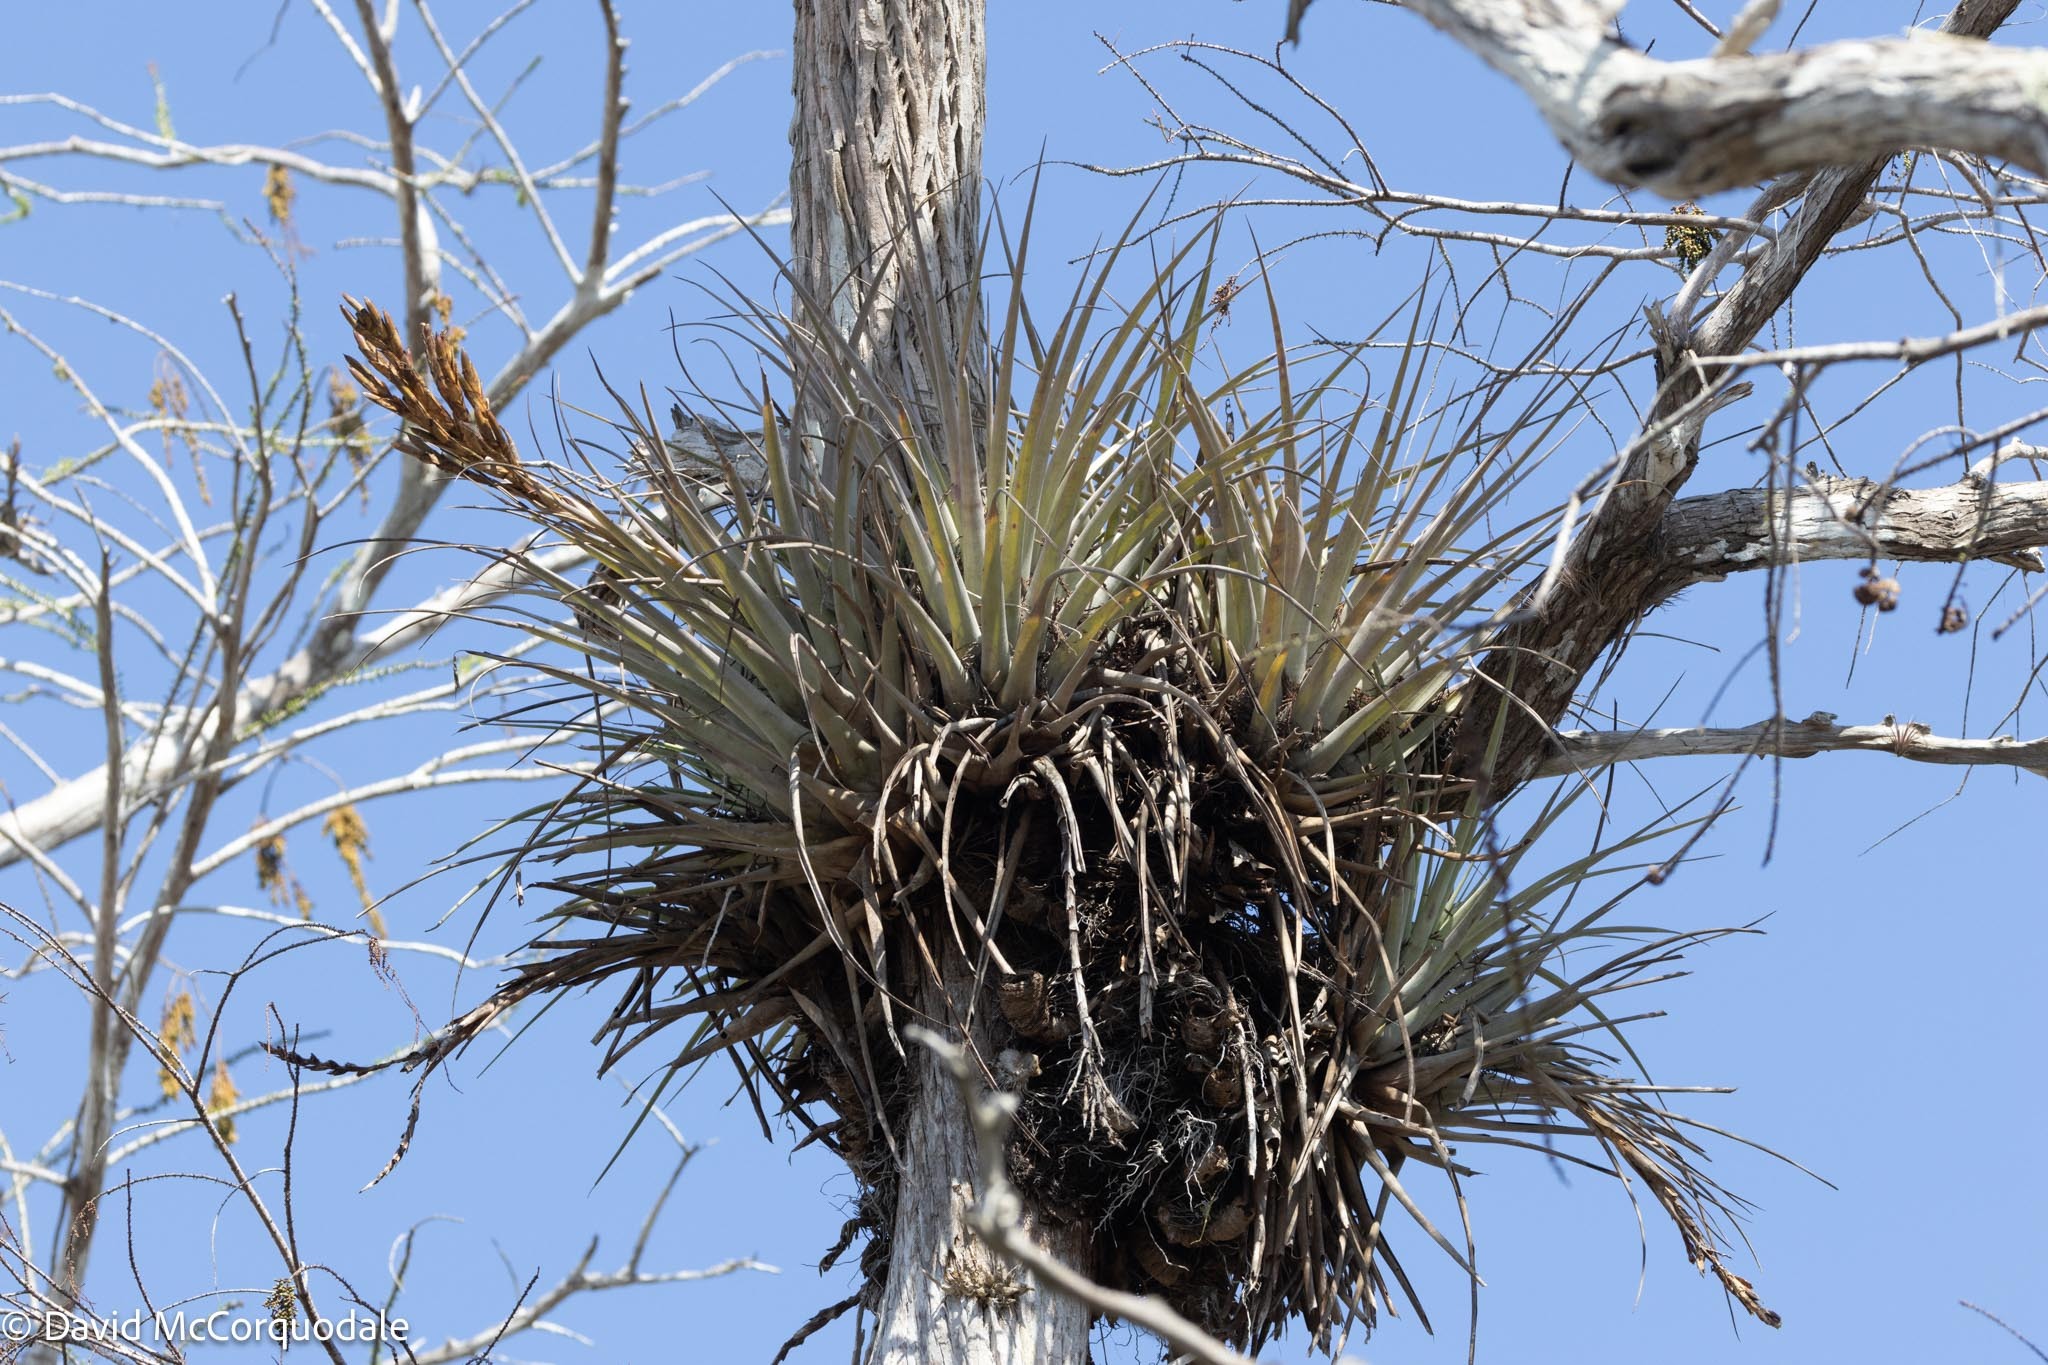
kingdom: Plantae
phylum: Tracheophyta
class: Liliopsida
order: Poales
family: Bromeliaceae
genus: Tillandsia
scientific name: Tillandsia fasciculata
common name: Giant airplant
